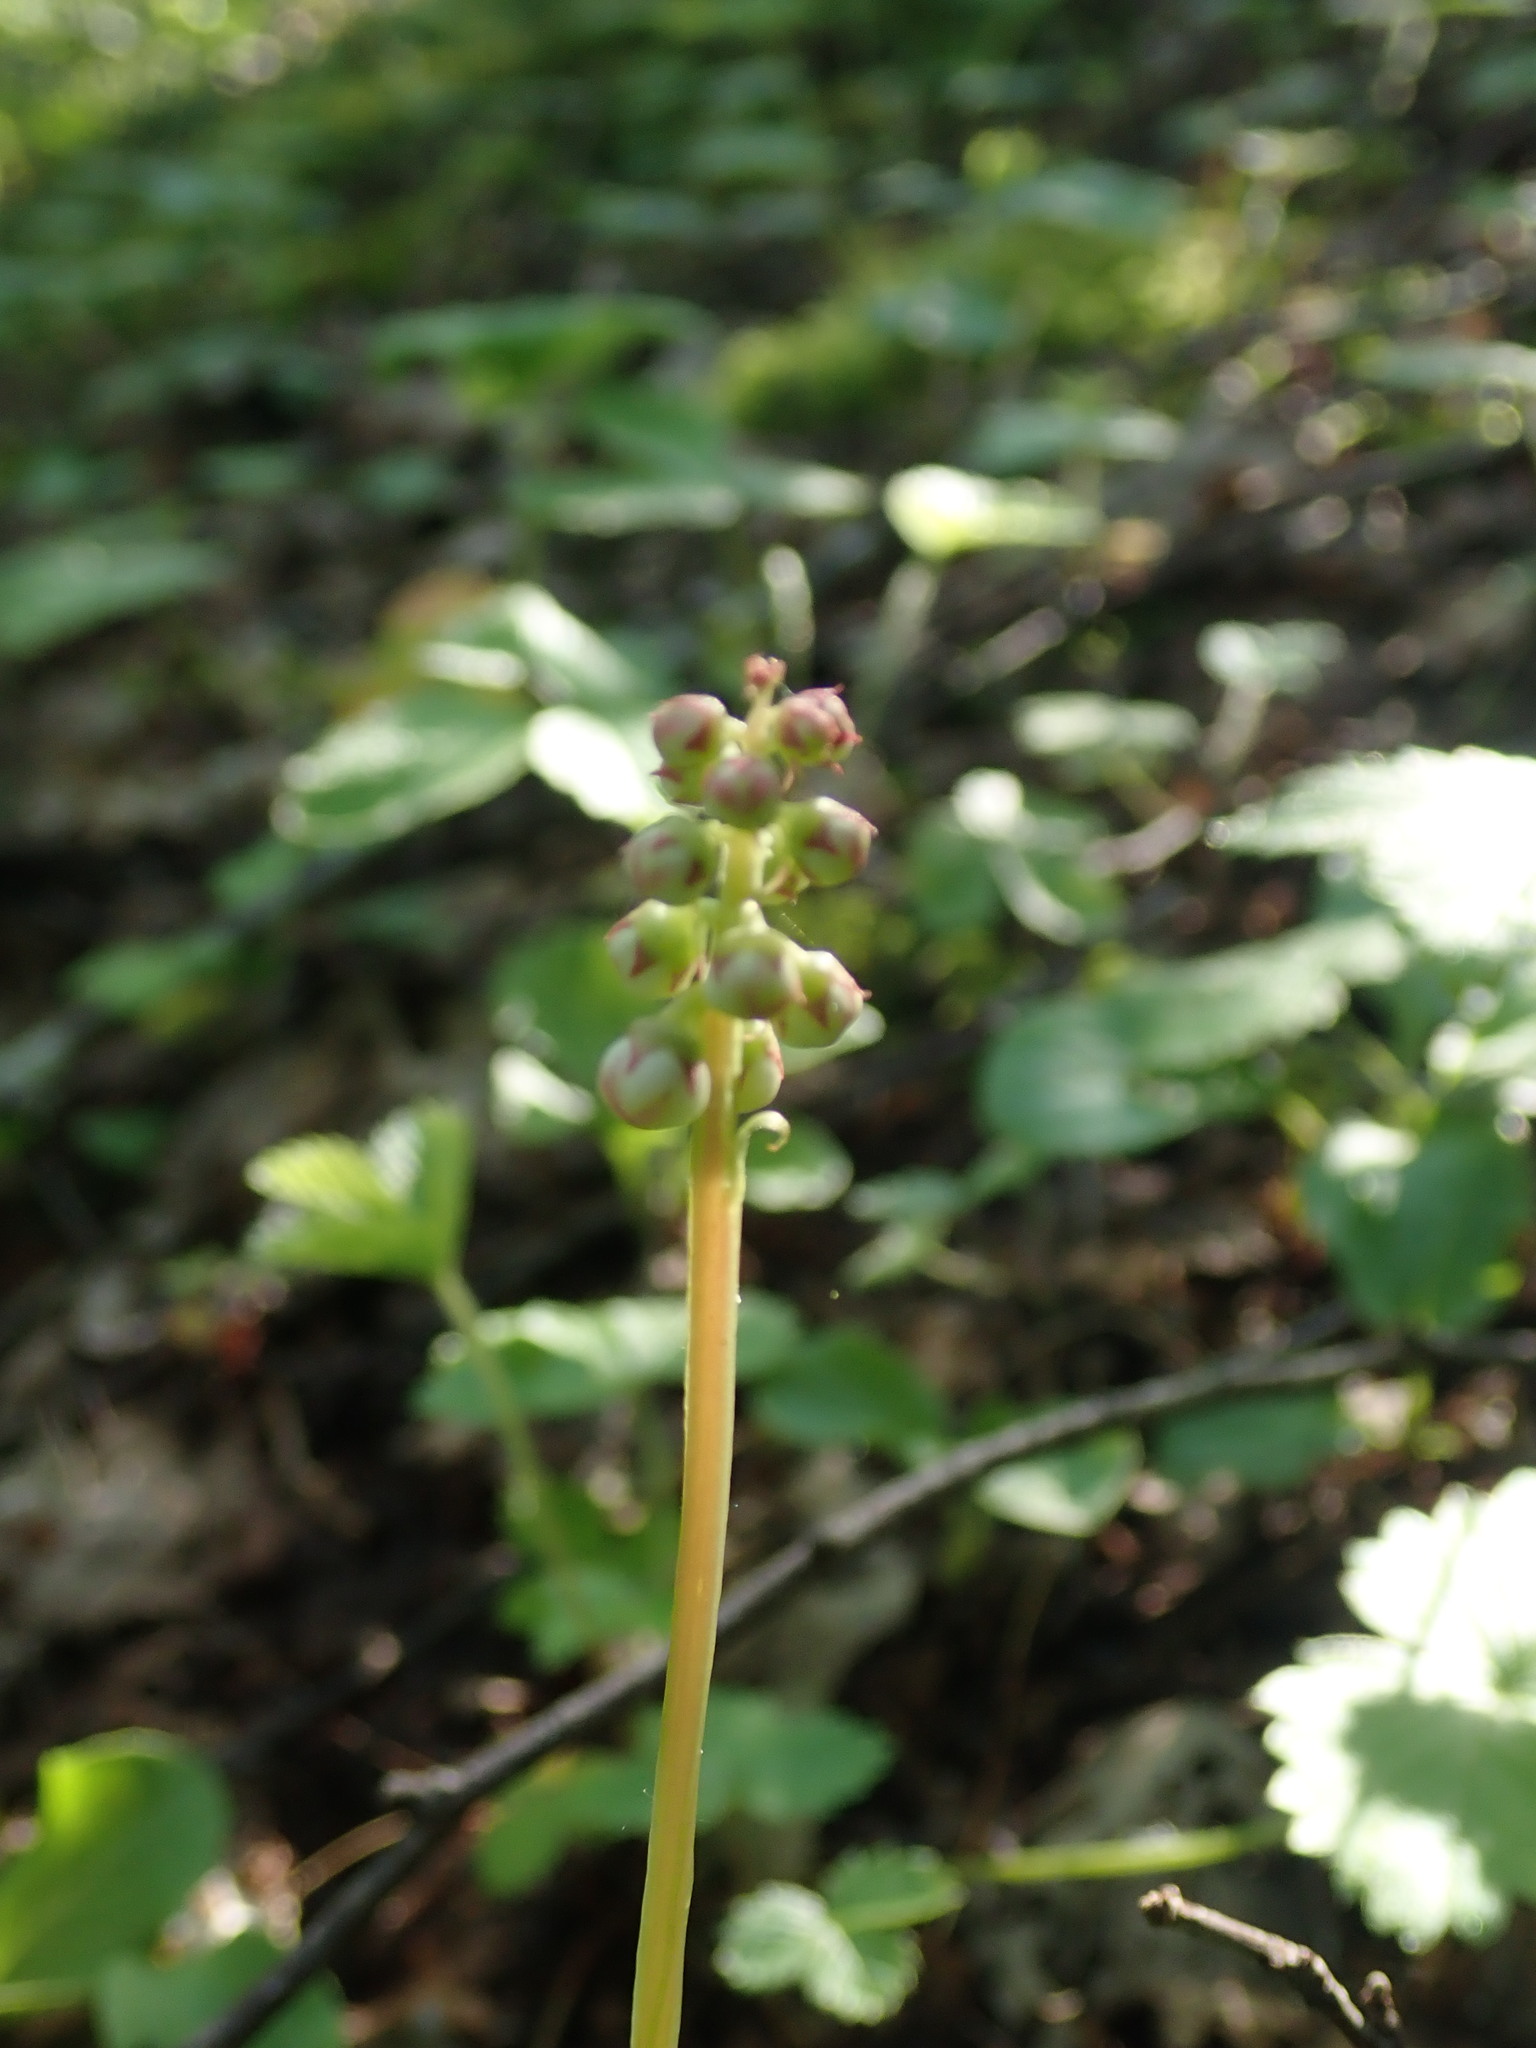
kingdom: Plantae
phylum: Tracheophyta
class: Magnoliopsida
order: Ericales
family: Ericaceae
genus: Pyrola
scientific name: Pyrola minor
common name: Common wintergreen
